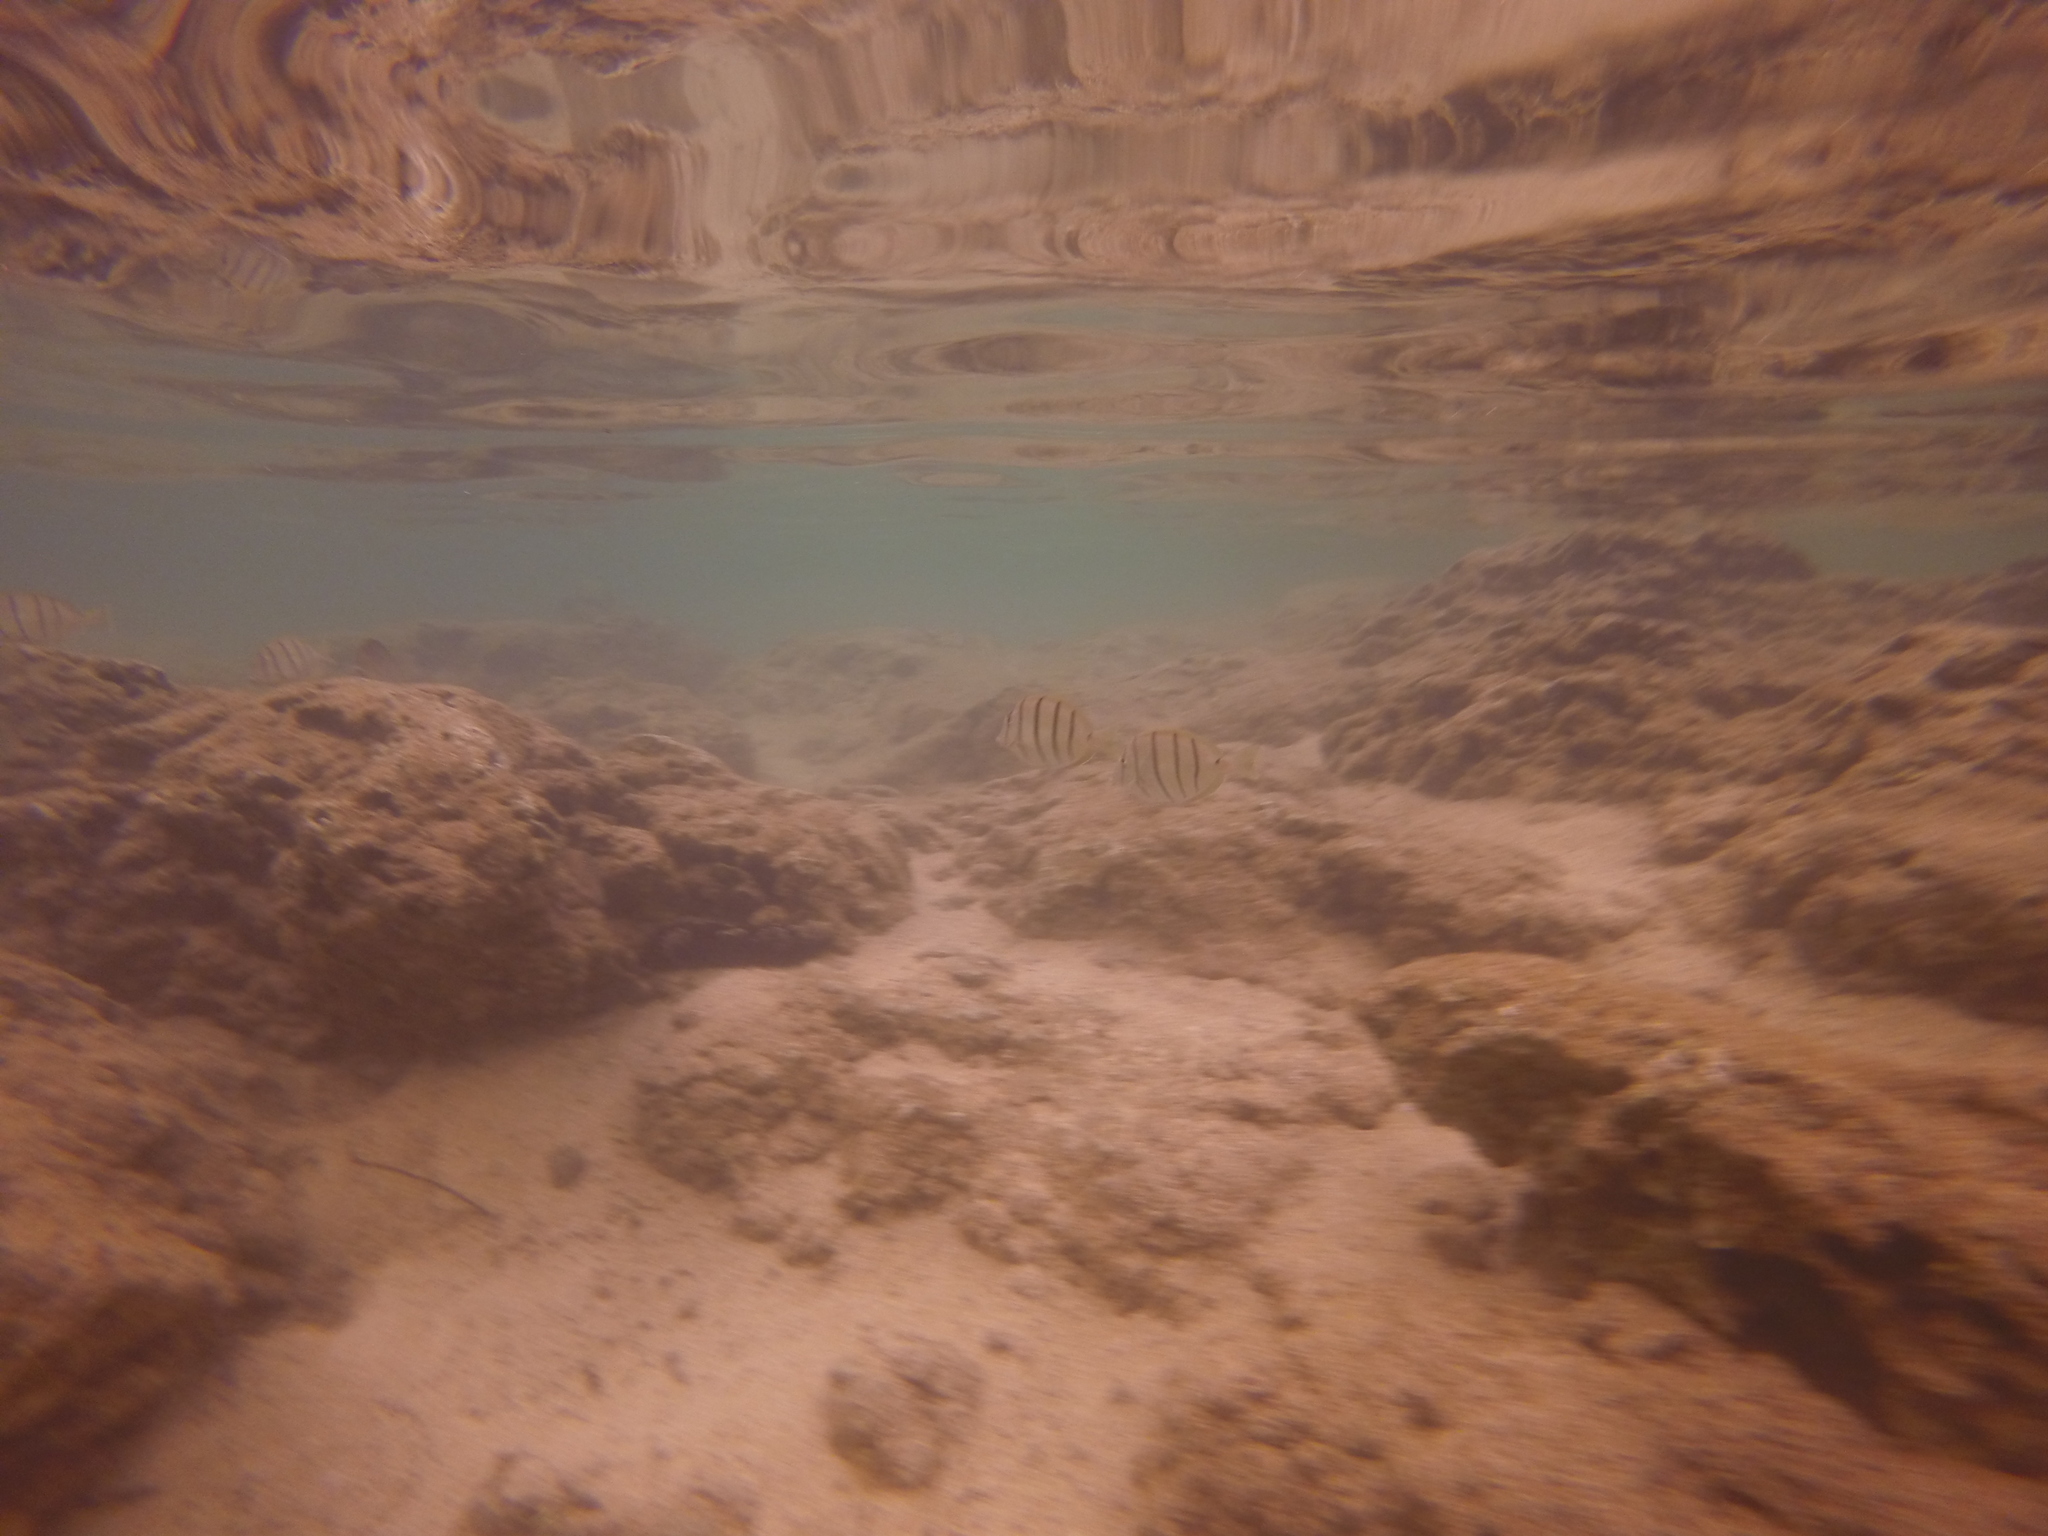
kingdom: Animalia
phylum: Chordata
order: Perciformes
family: Acanthuridae
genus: Acanthurus
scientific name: Acanthurus triostegus
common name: Convict surgeonfish
